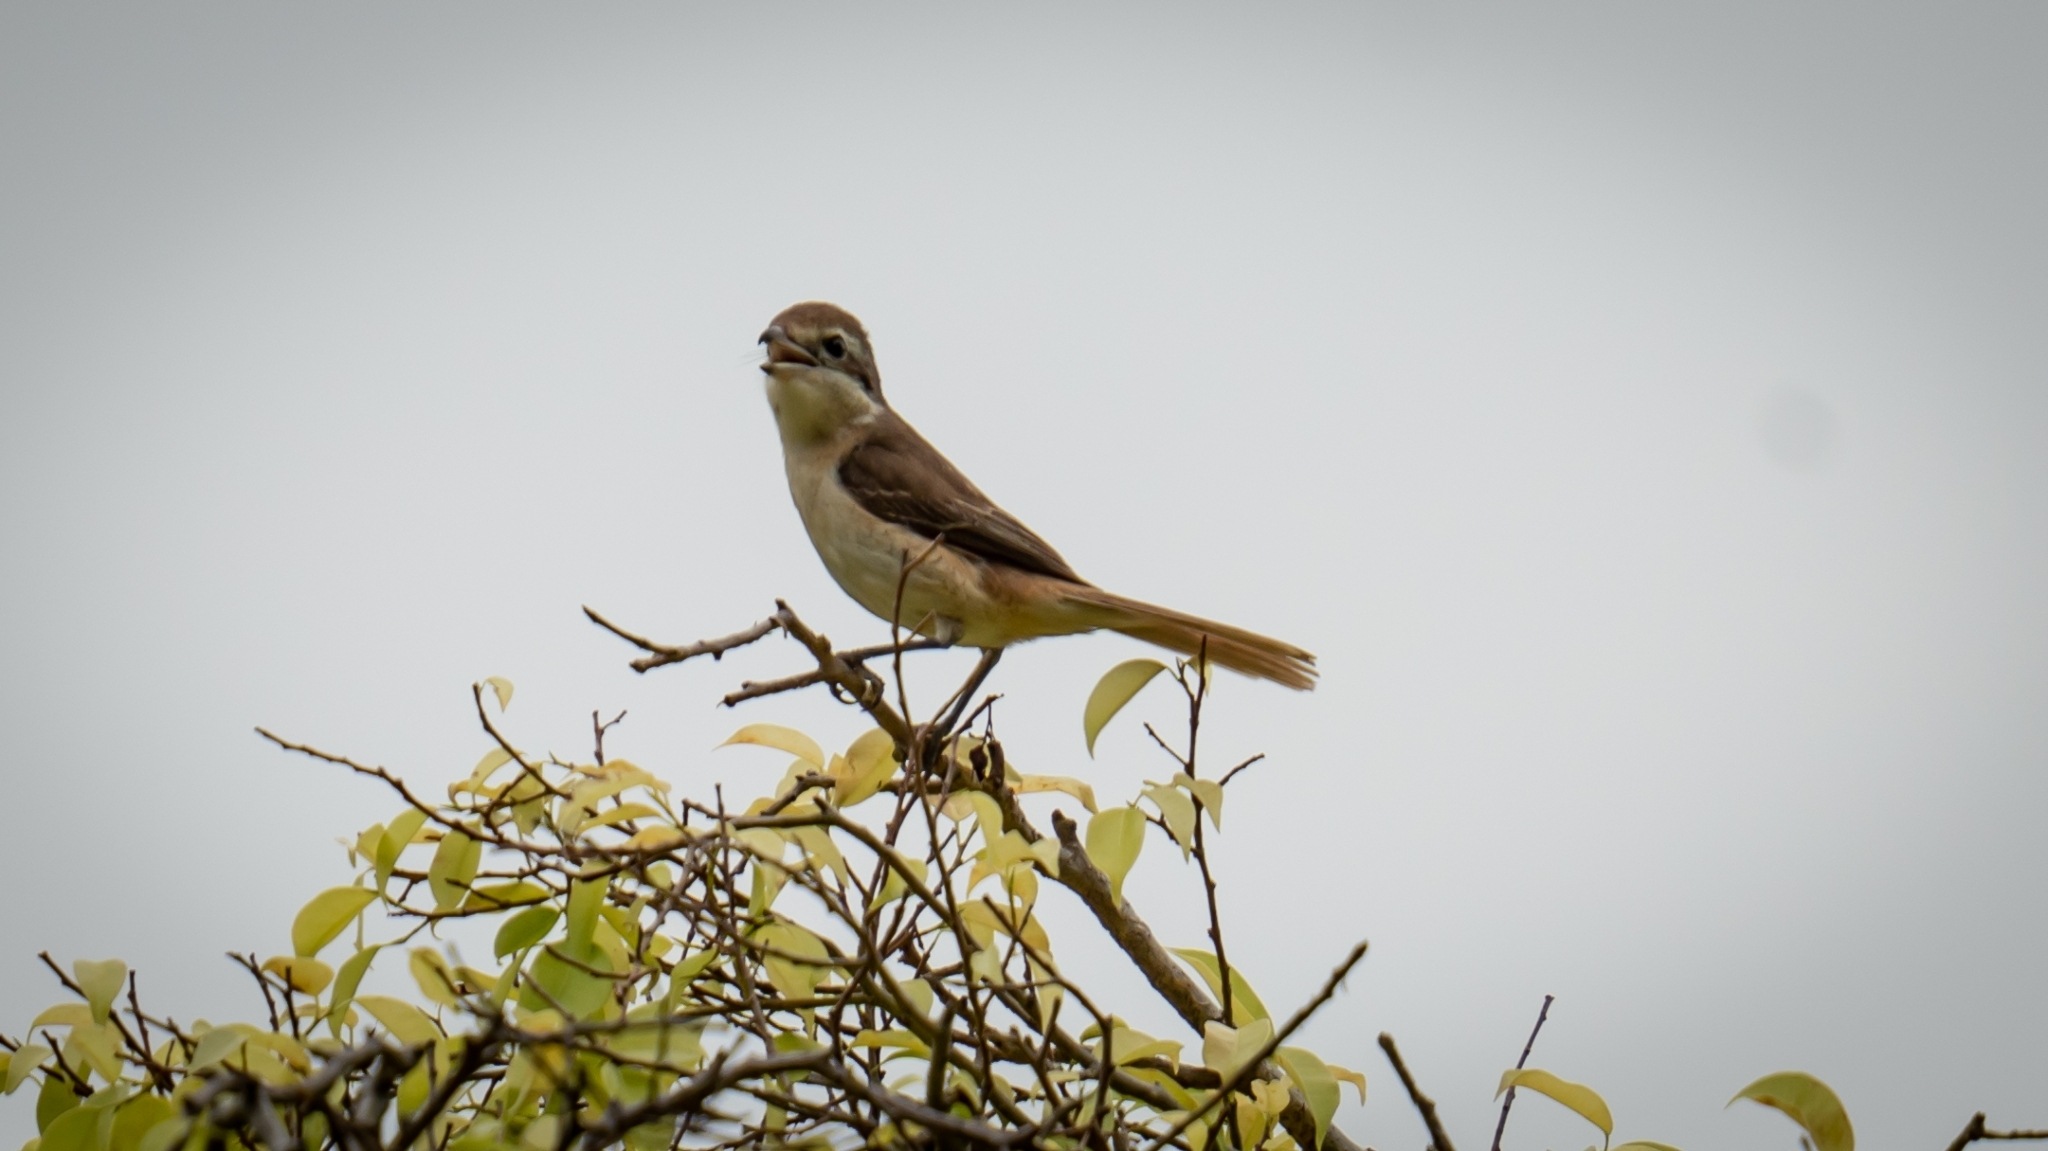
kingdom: Animalia
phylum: Chordata
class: Aves
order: Passeriformes
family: Laniidae
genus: Lanius
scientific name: Lanius cristatus
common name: Brown shrike
